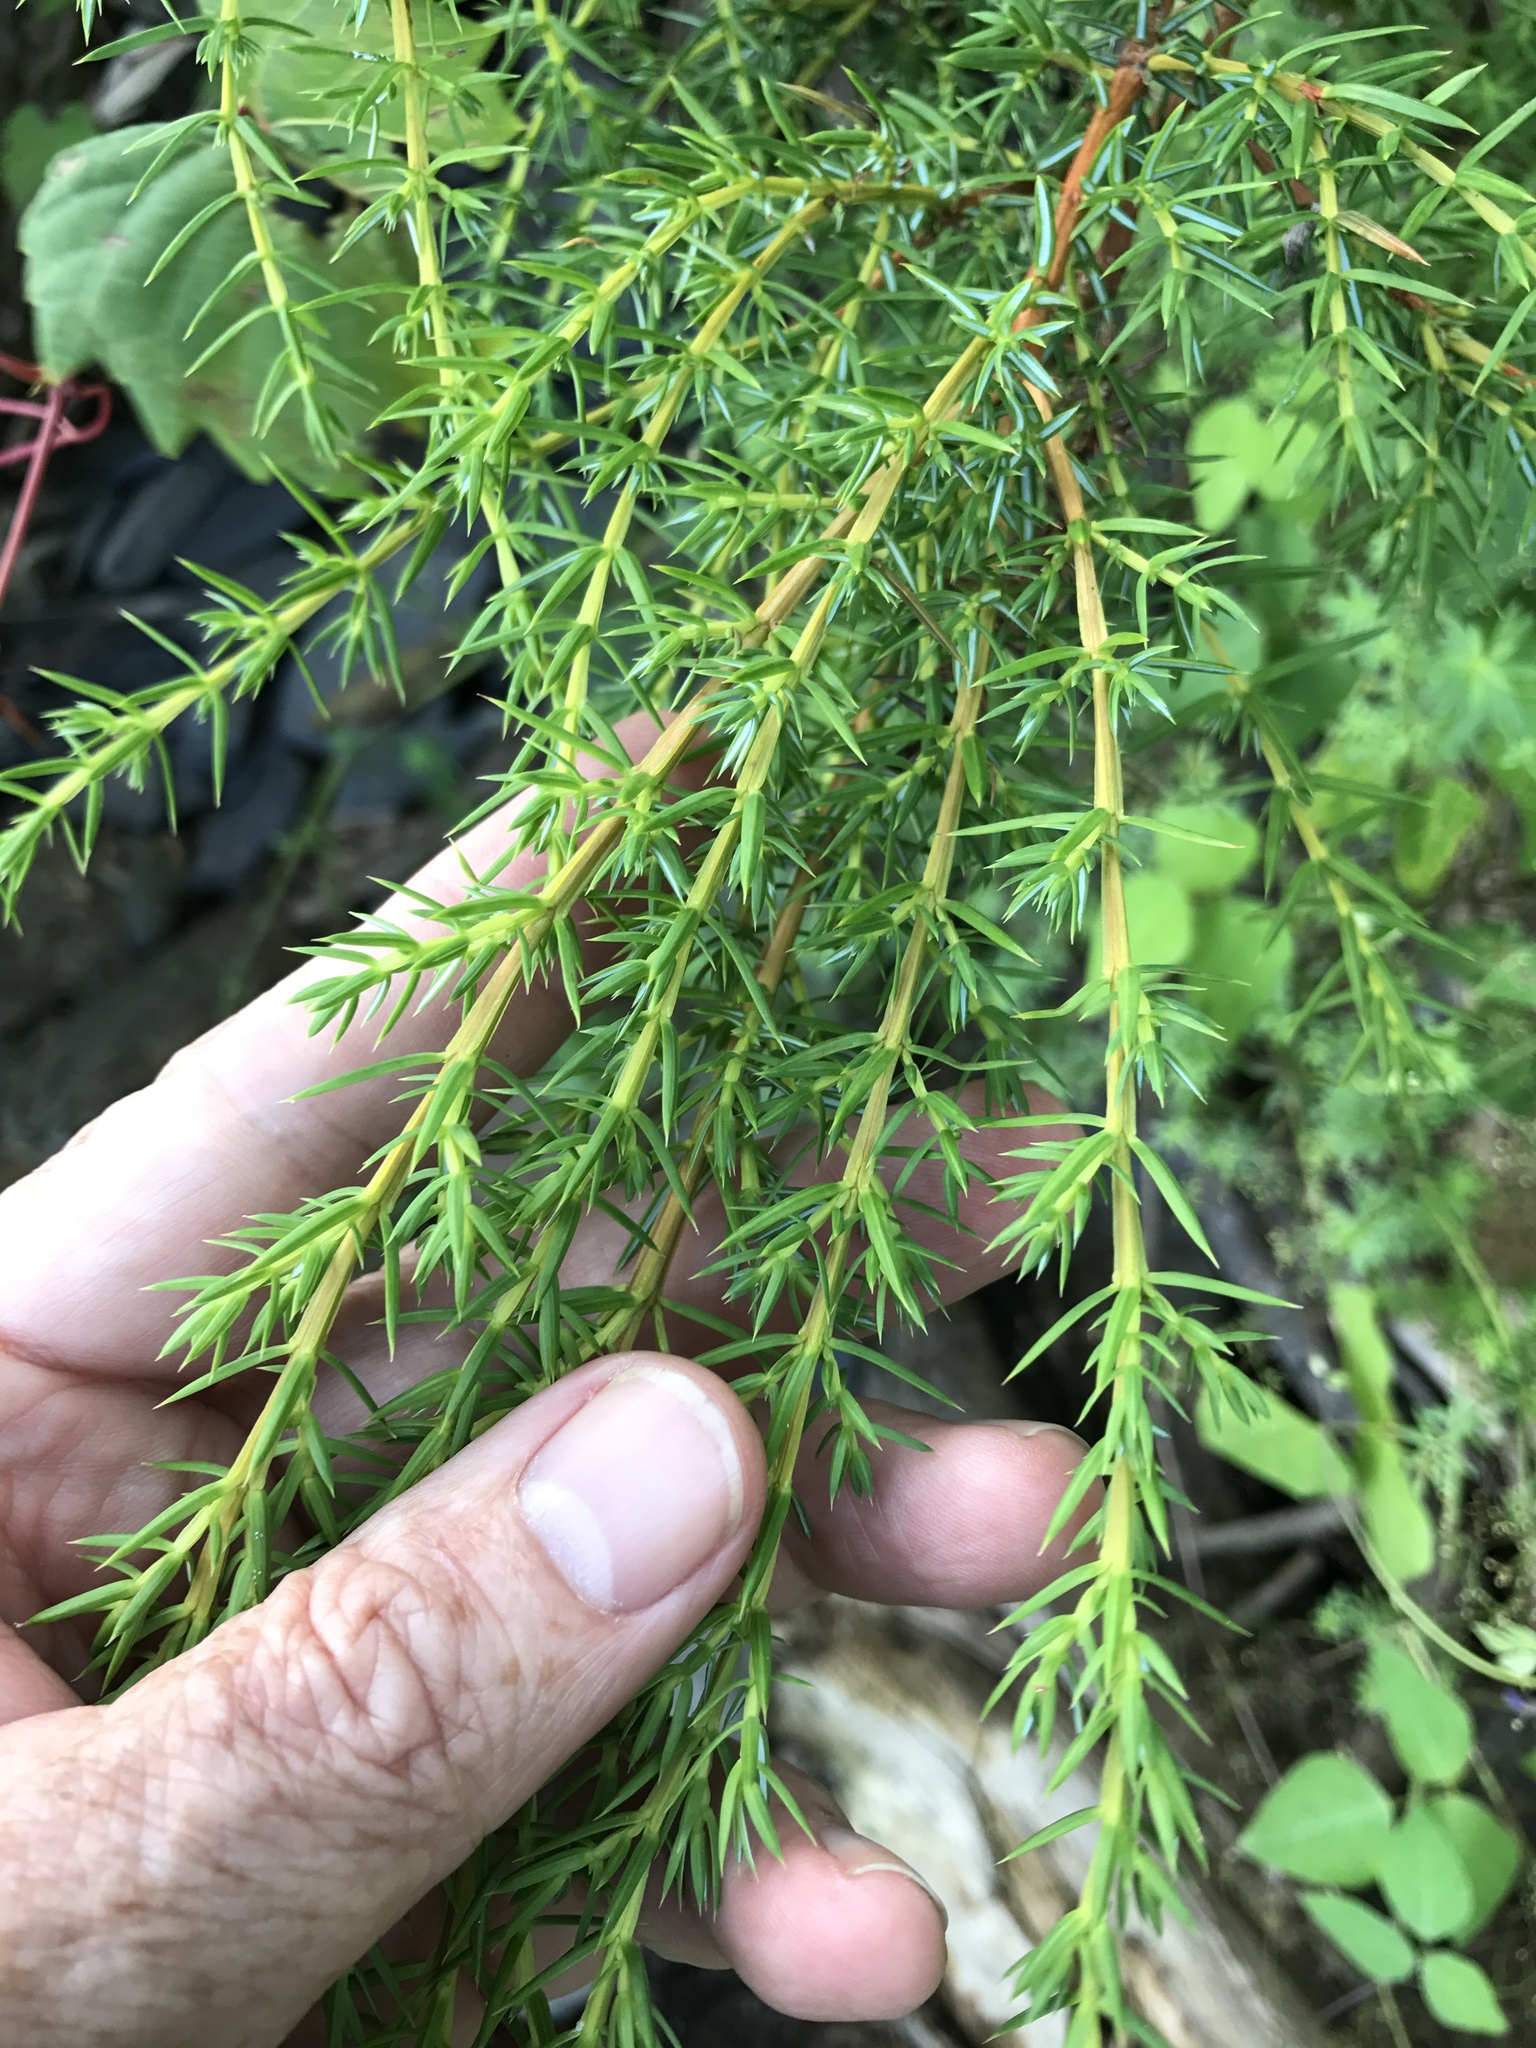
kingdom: Plantae
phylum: Tracheophyta
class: Pinopsida
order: Pinales
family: Cupressaceae
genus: Juniperus
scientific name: Juniperus communis
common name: Common juniper
